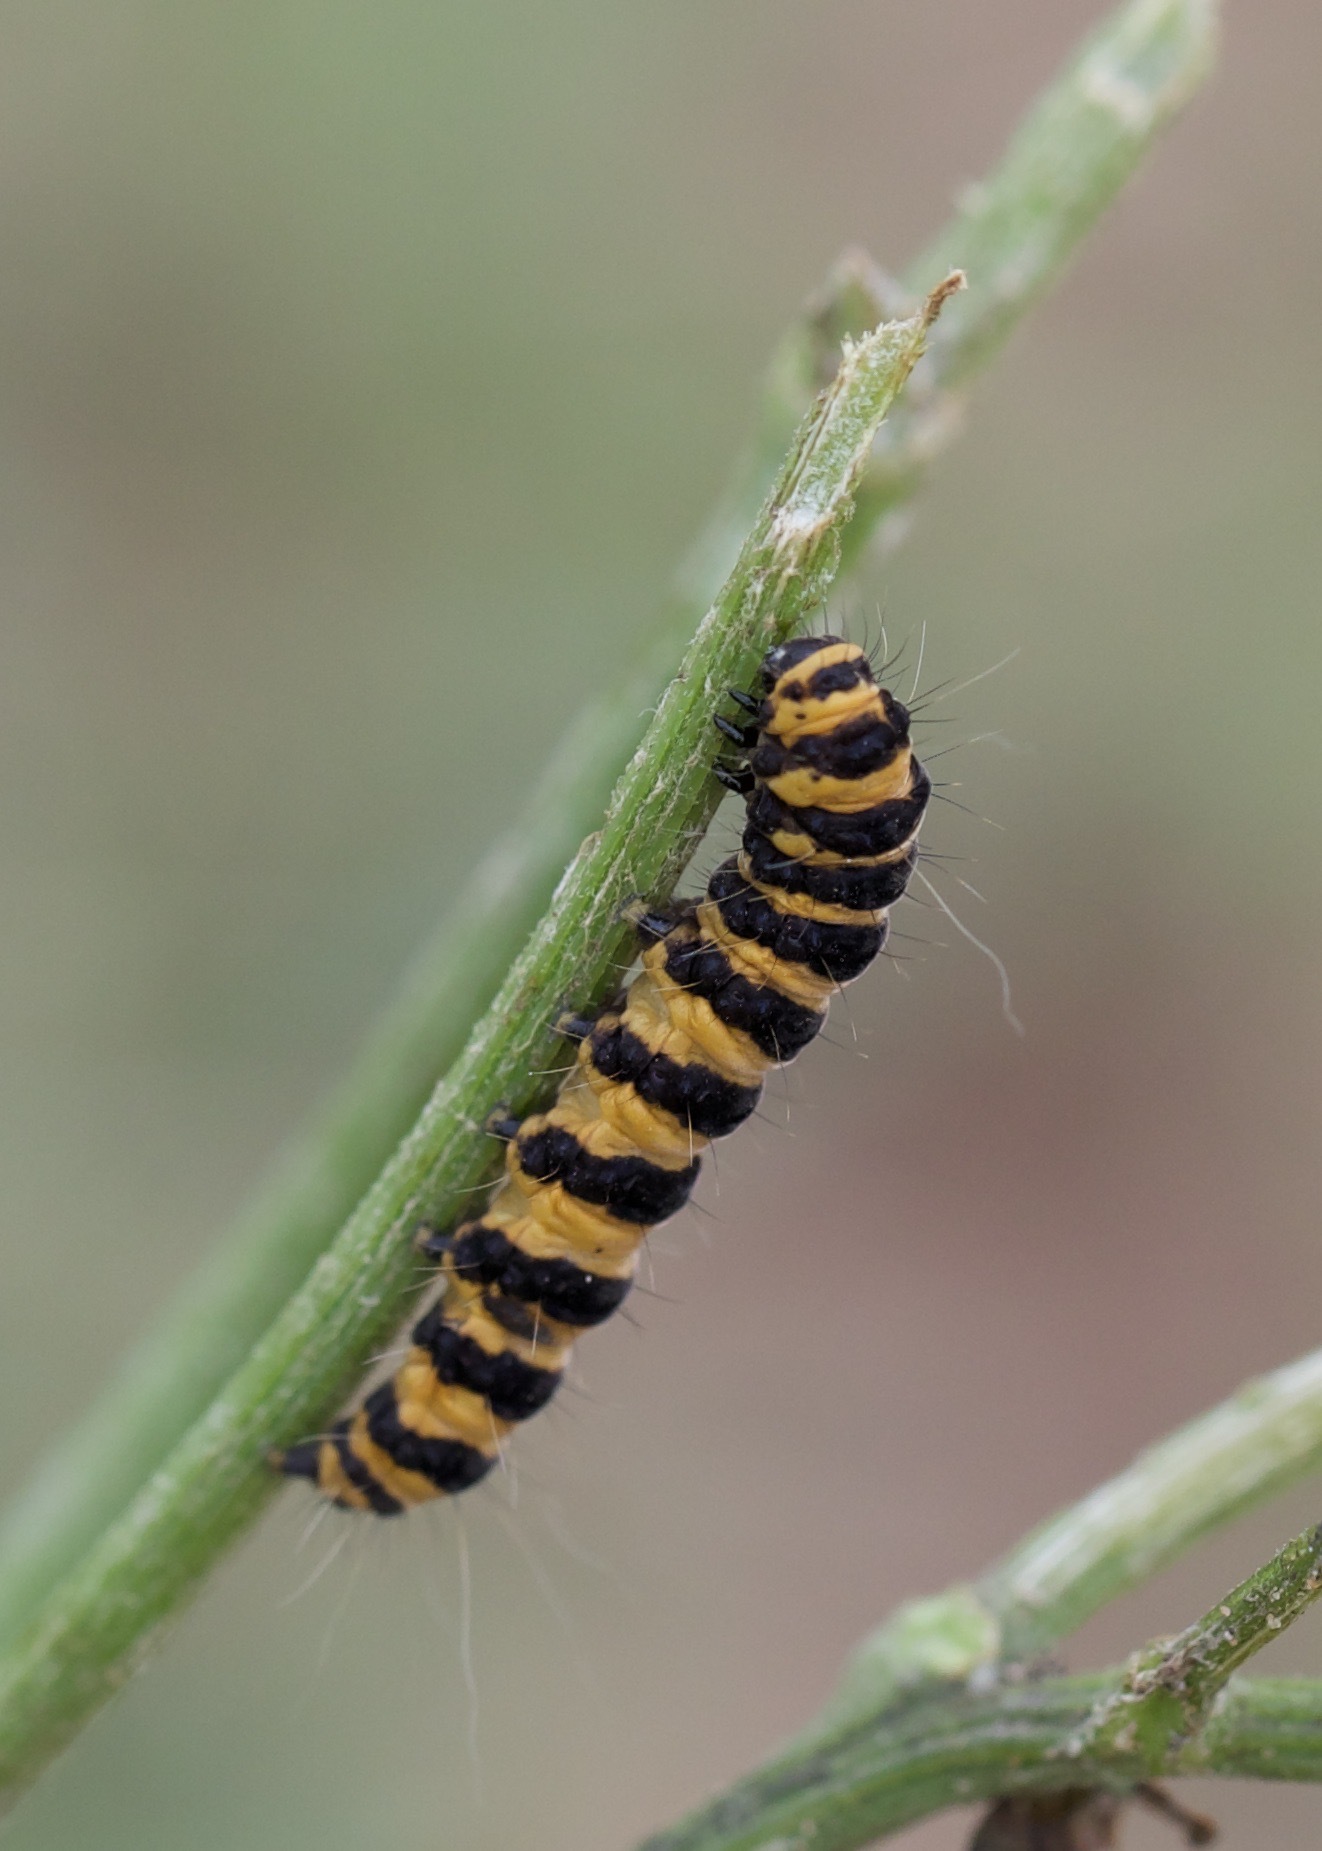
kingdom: Animalia
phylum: Arthropoda
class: Insecta
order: Lepidoptera
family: Erebidae
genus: Tyria
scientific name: Tyria jacobaeae
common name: Cinnabar
